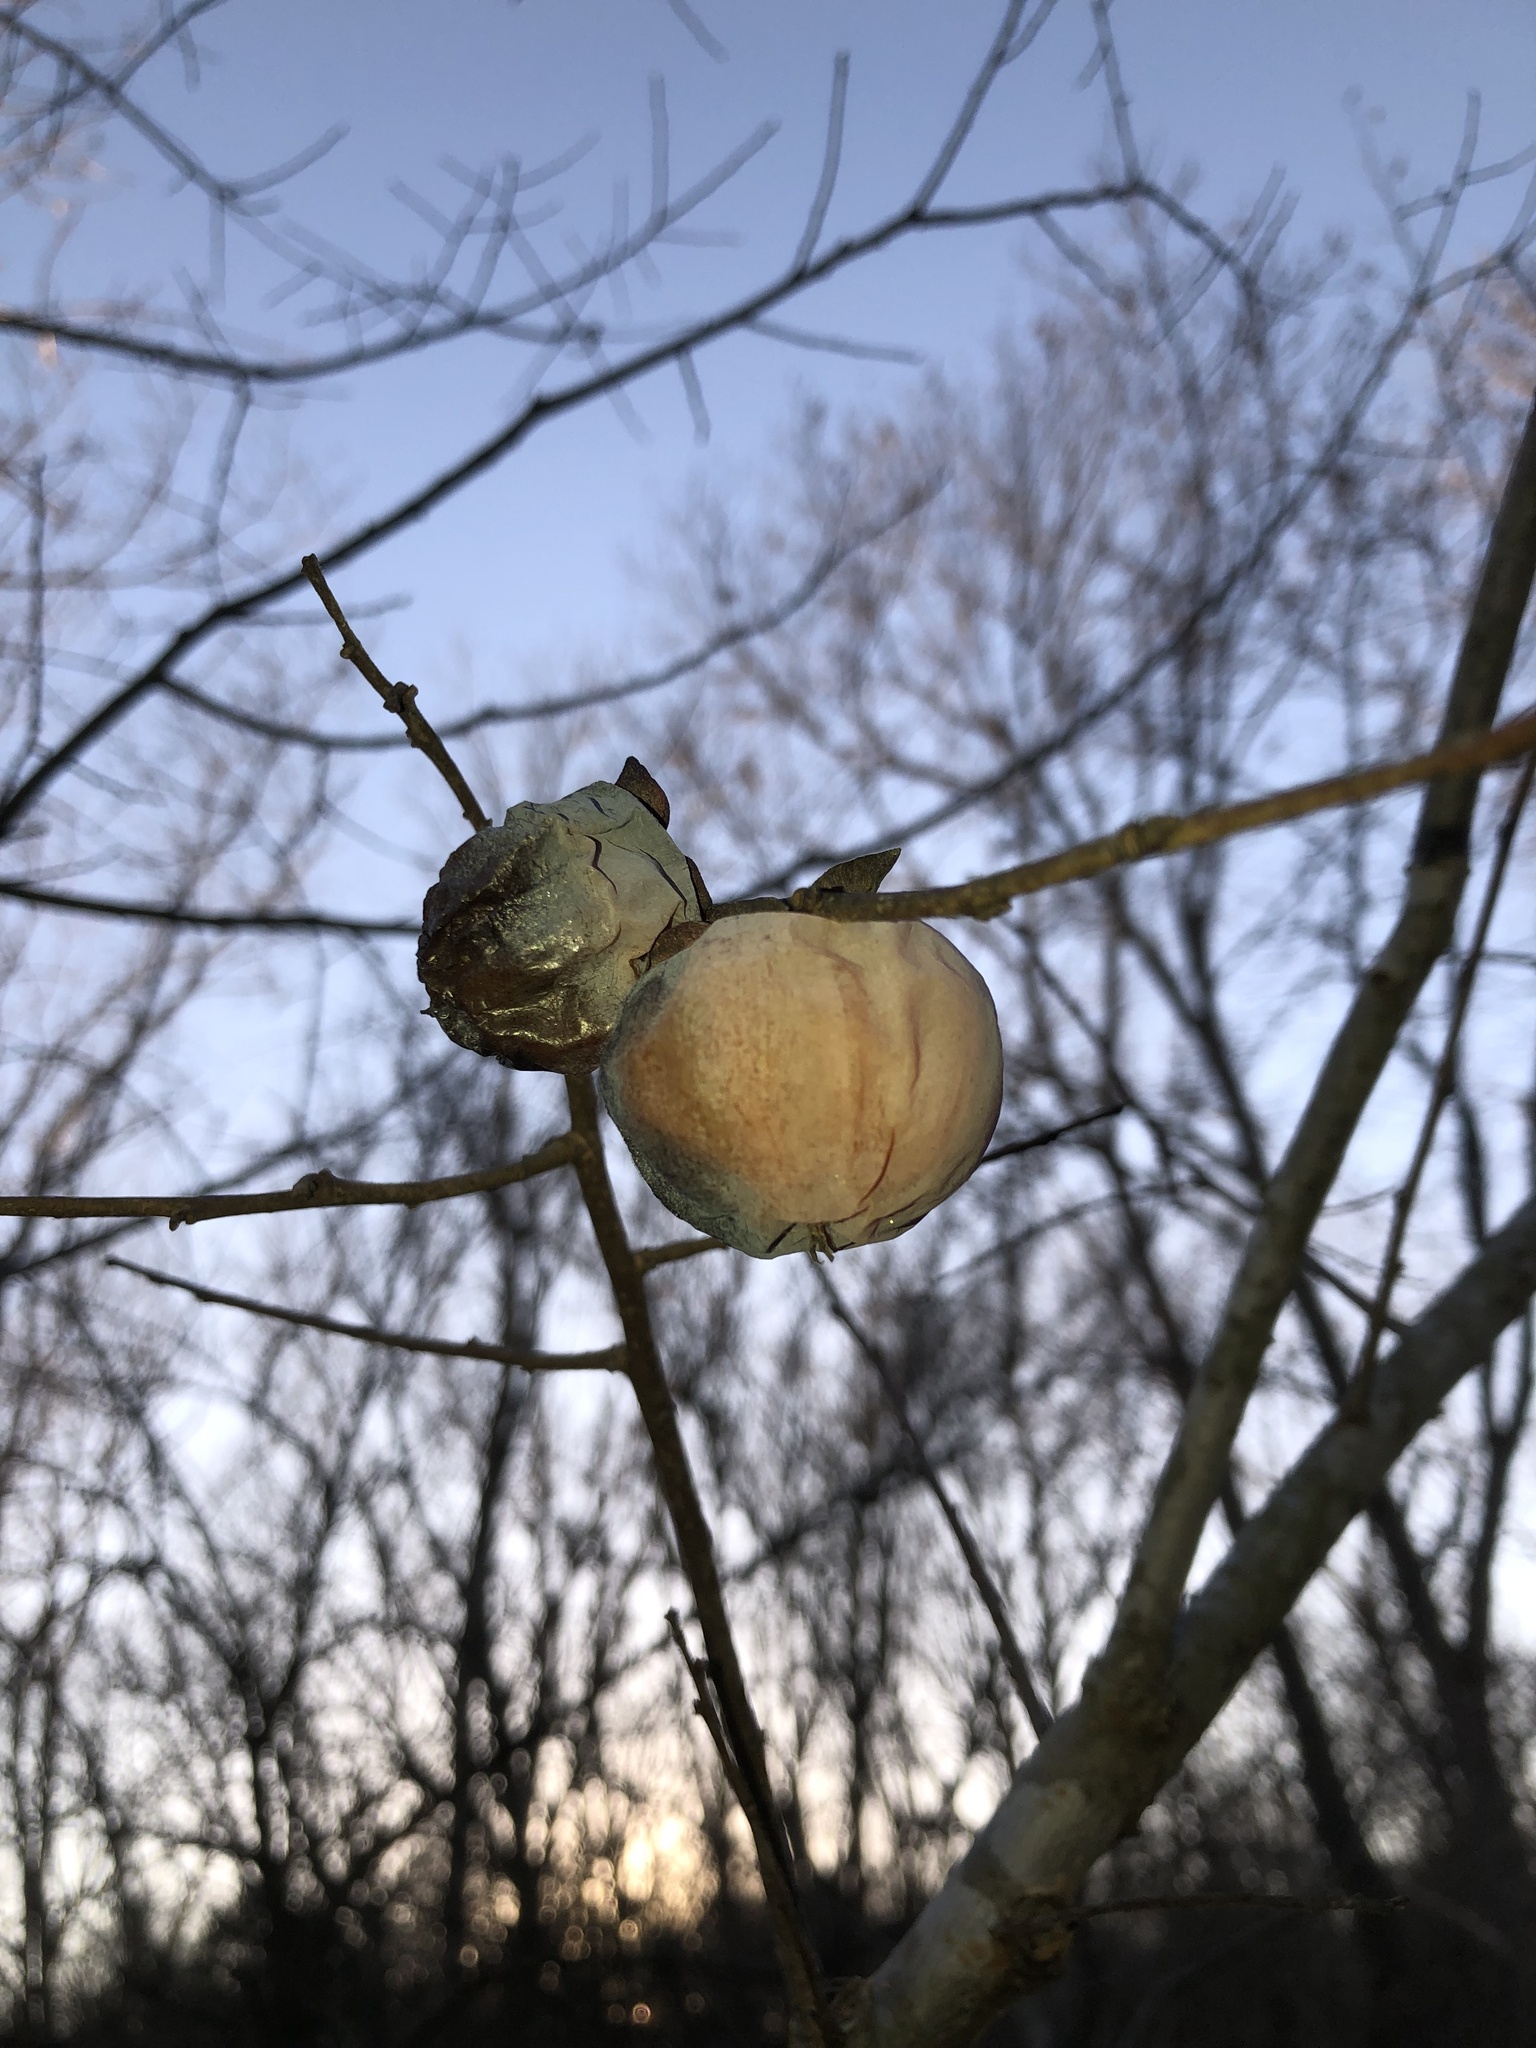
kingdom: Plantae
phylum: Tracheophyta
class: Magnoliopsida
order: Ericales
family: Ebenaceae
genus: Diospyros
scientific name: Diospyros virginiana
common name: Persimmon
